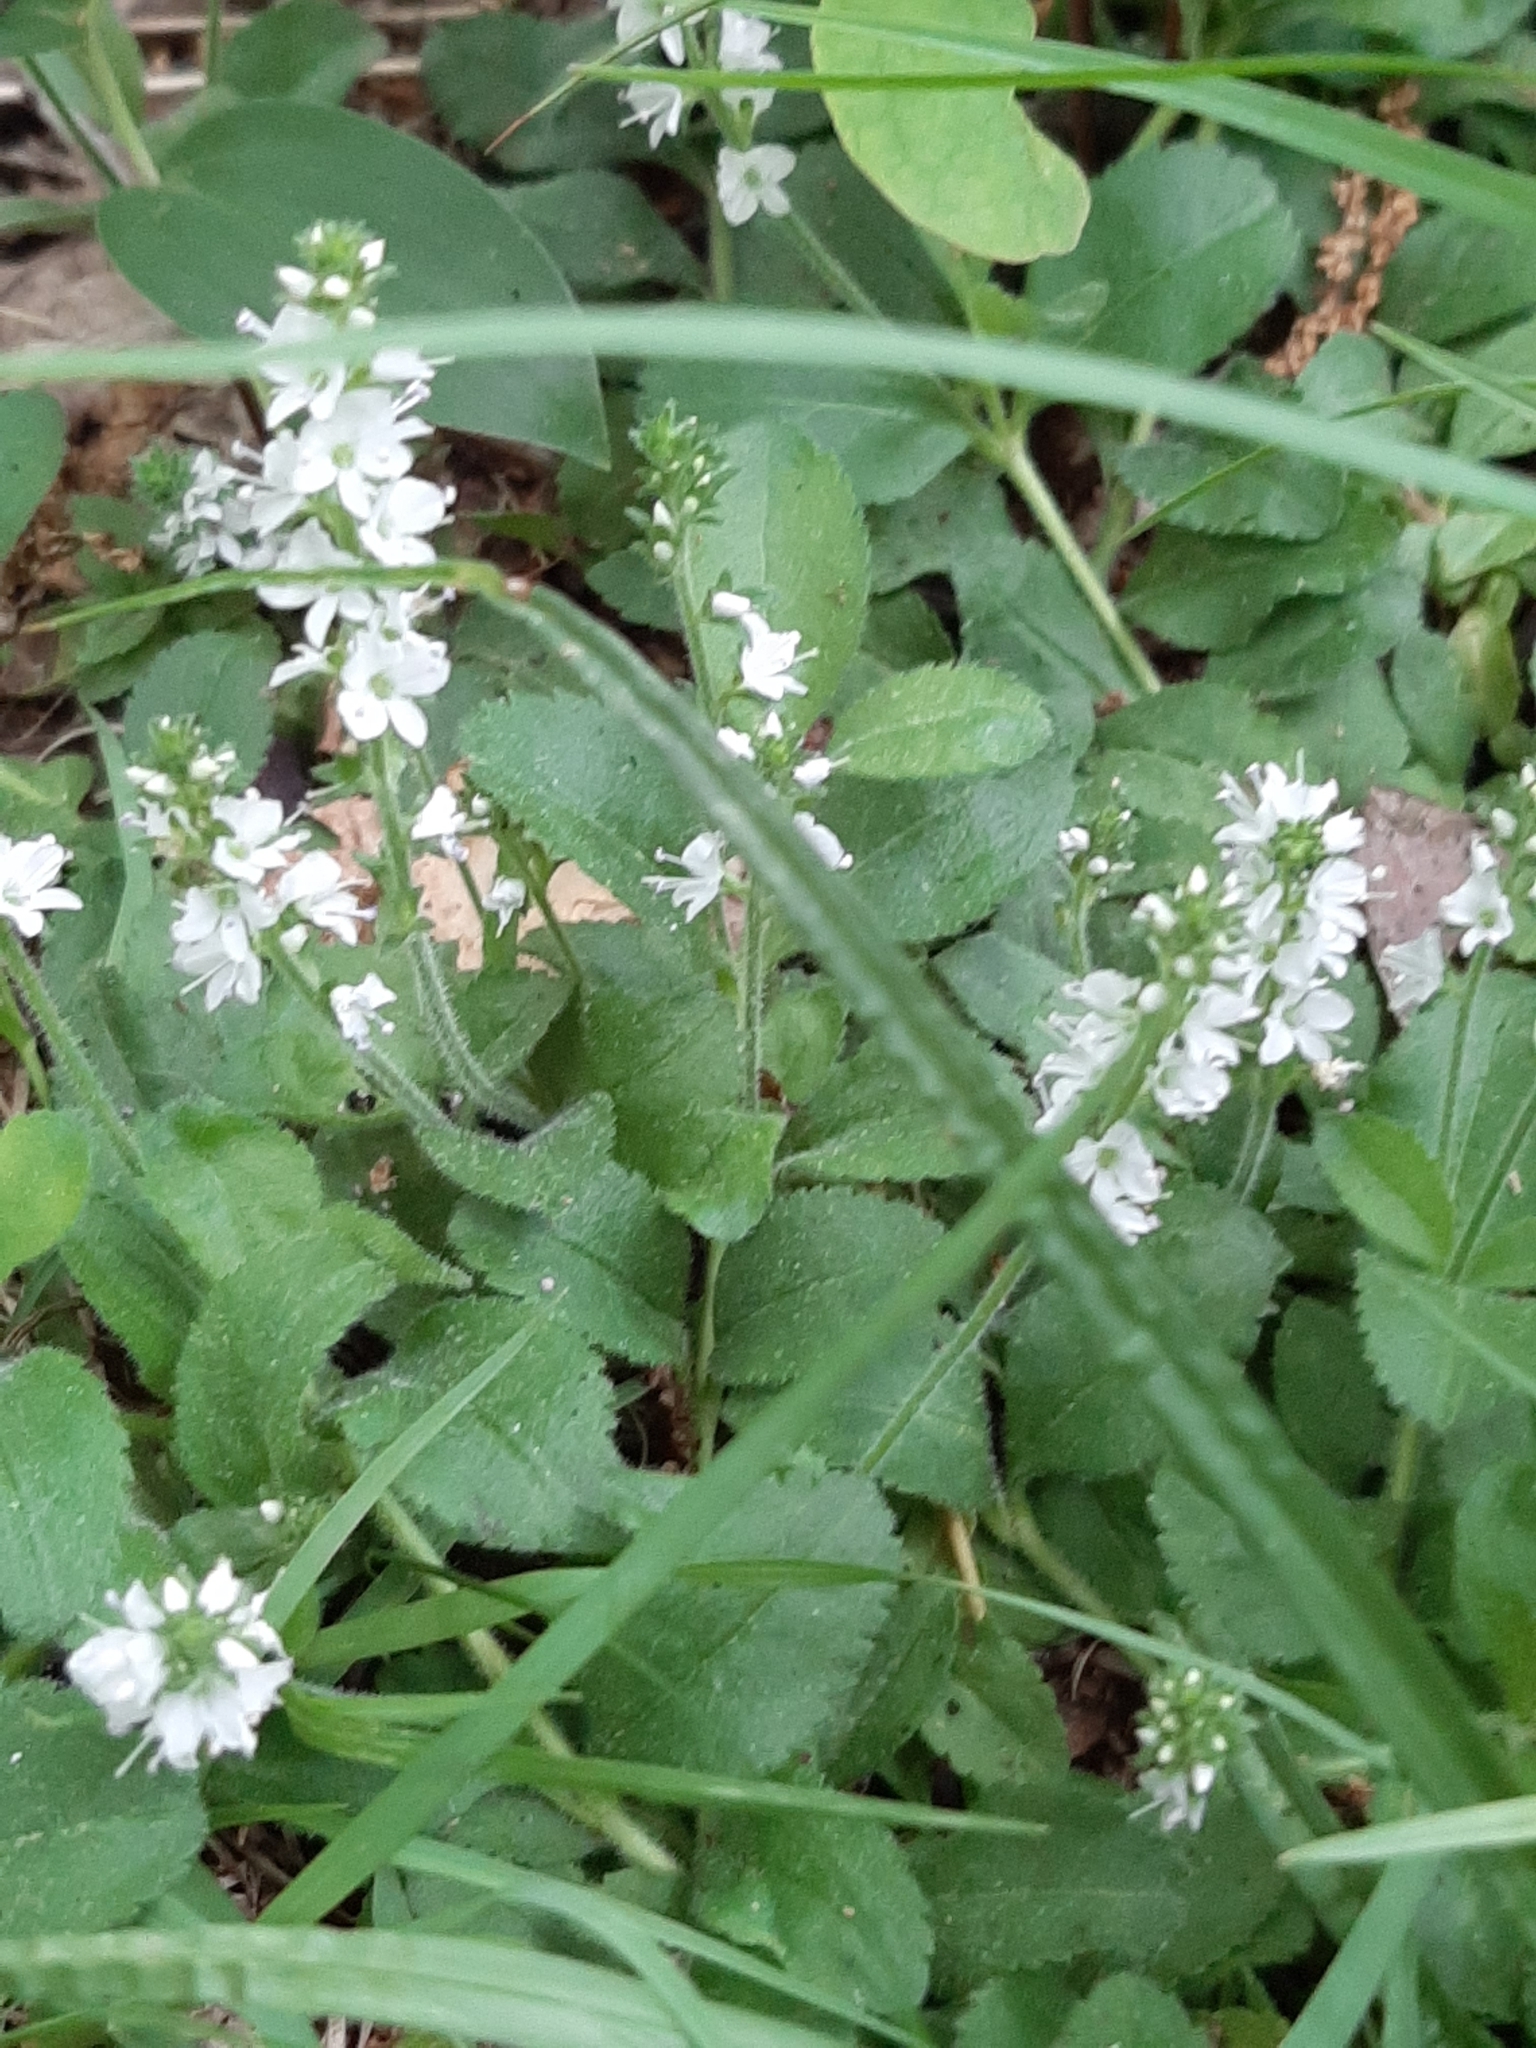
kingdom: Plantae
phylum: Tracheophyta
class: Magnoliopsida
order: Lamiales
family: Plantaginaceae
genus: Veronica
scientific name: Veronica officinalis
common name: Common speedwell
